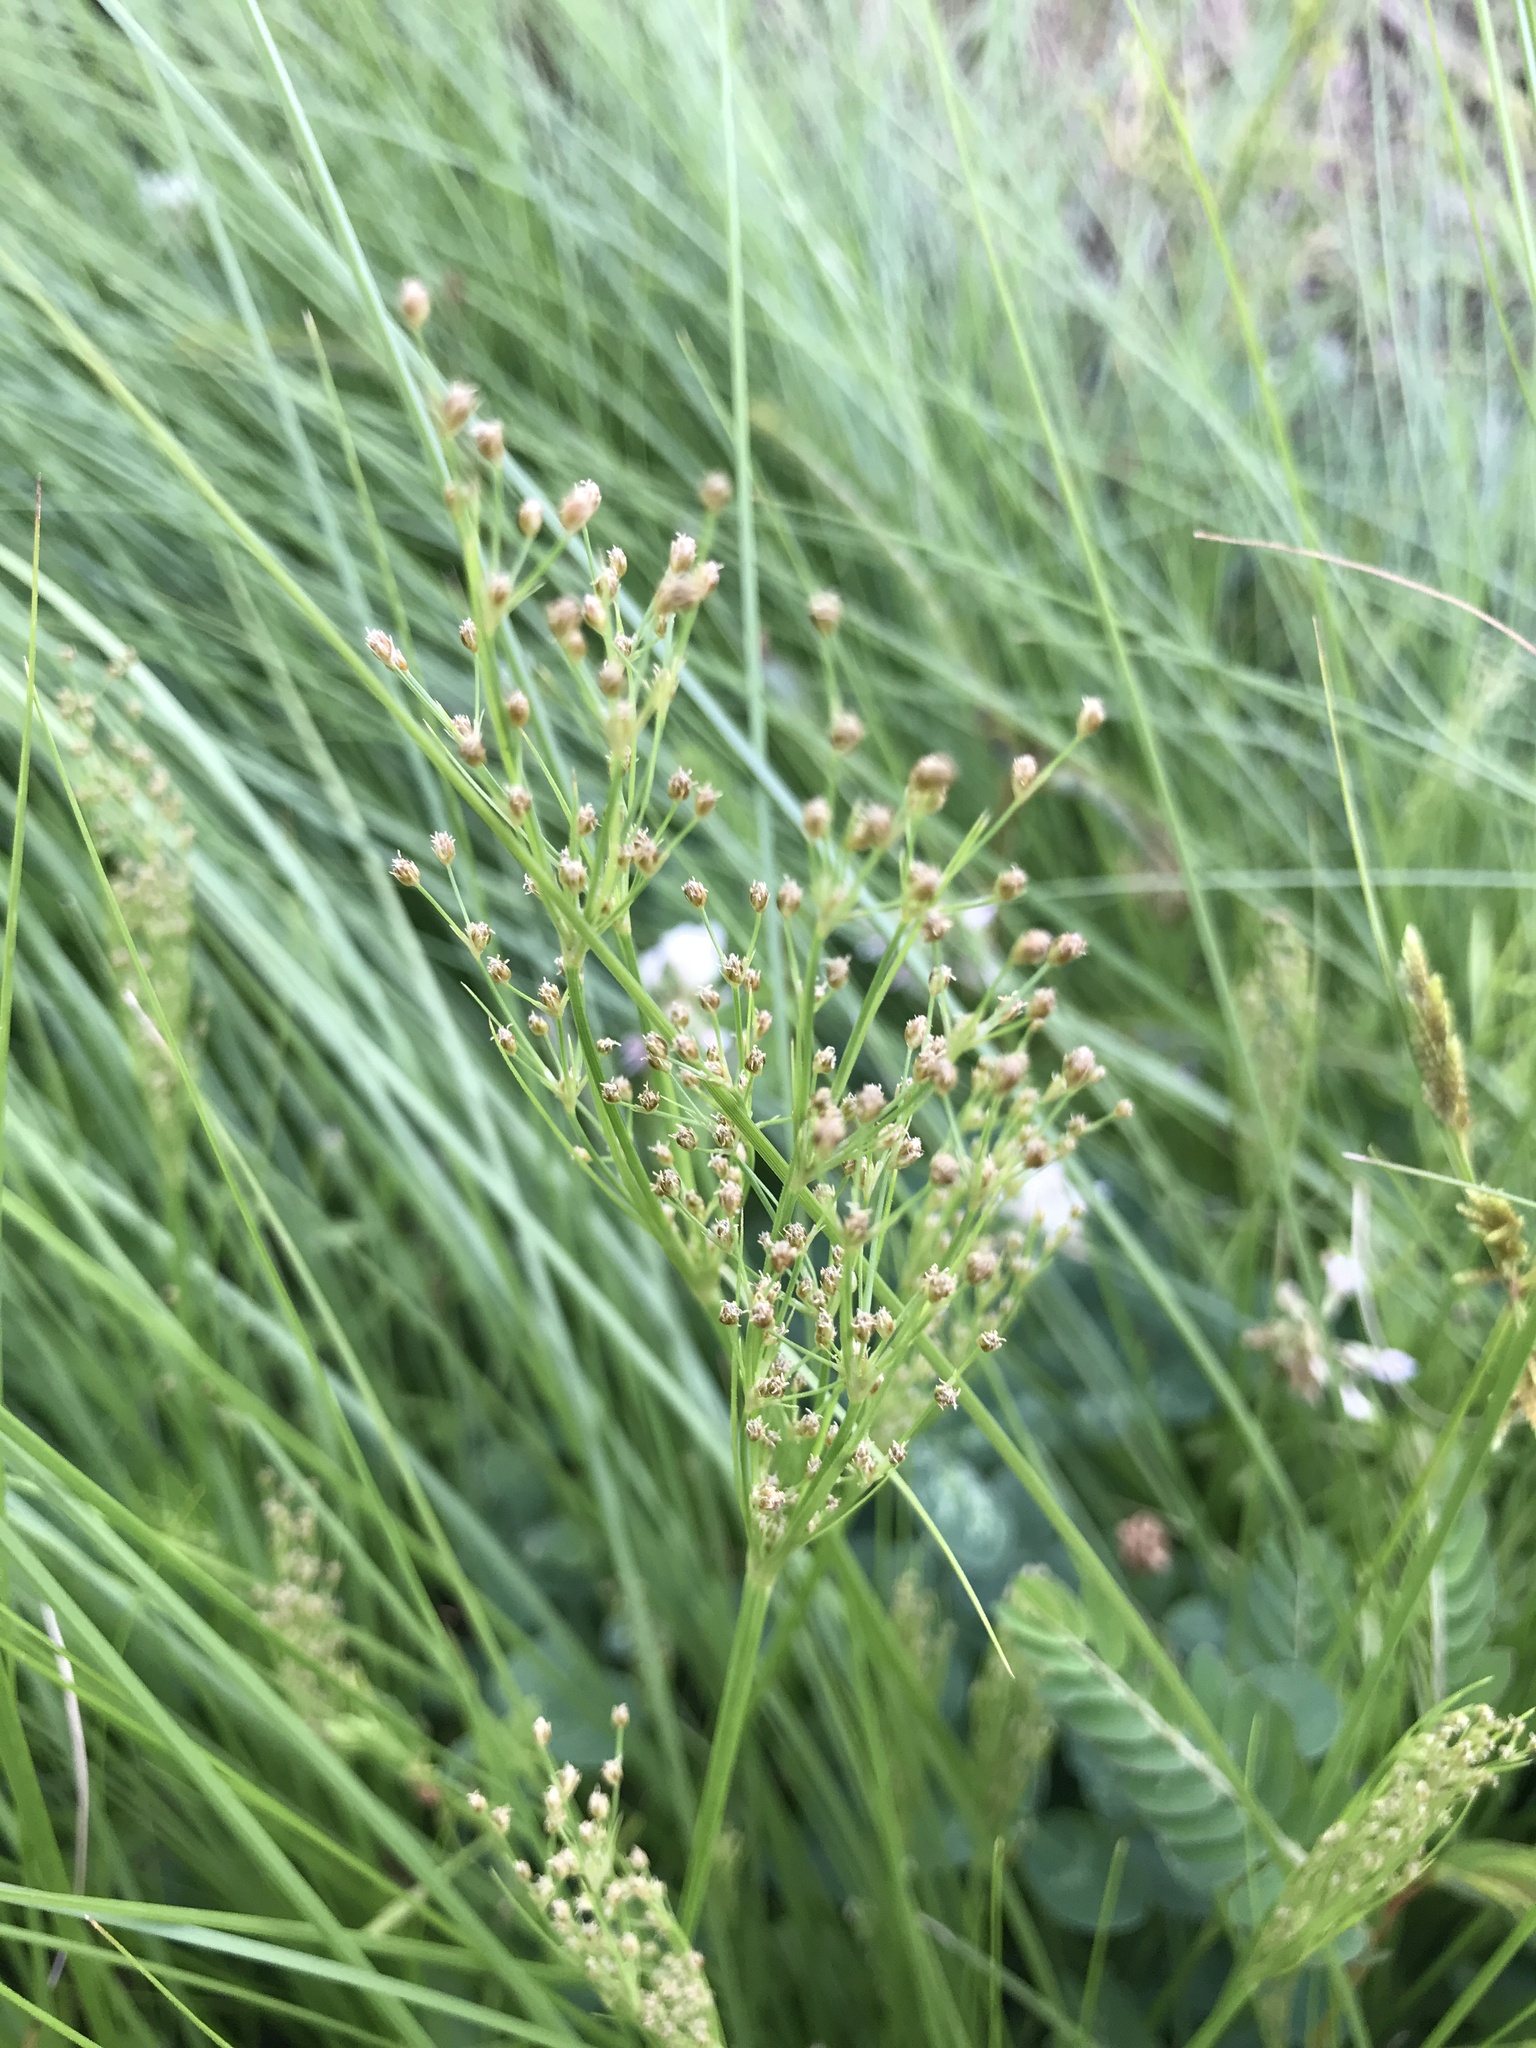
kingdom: Plantae
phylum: Tracheophyta
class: Liliopsida
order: Poales
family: Cyperaceae
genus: Fimbristylis
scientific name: Fimbristylis littoralis
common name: Fimbry
